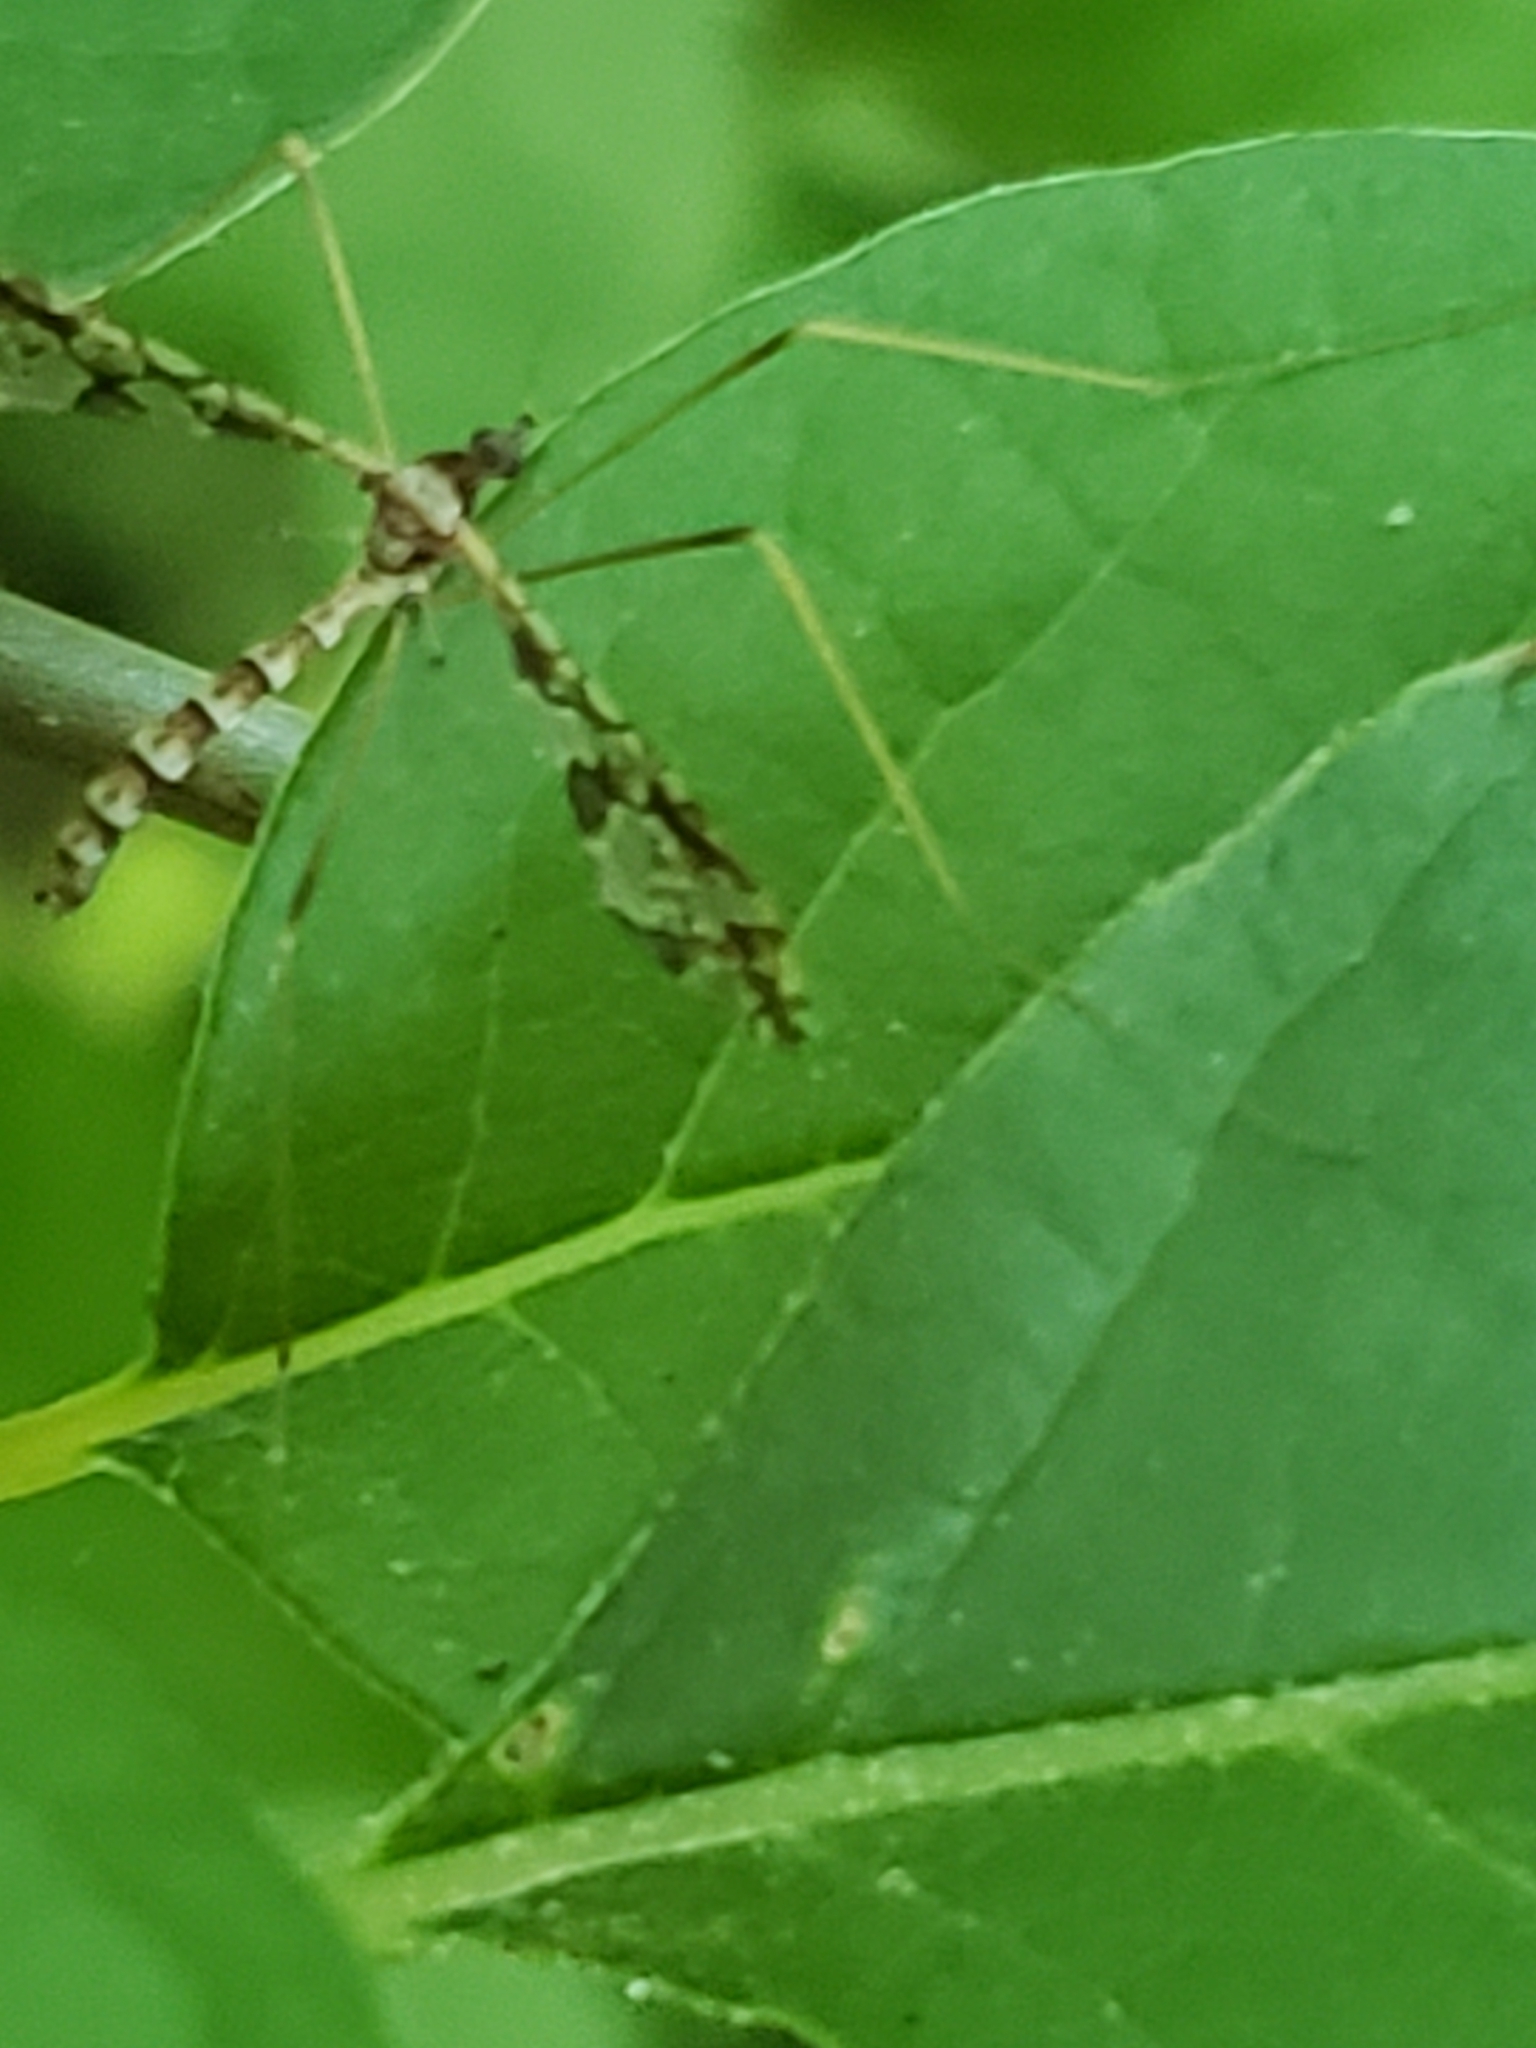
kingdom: Animalia
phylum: Arthropoda
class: Insecta
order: Diptera
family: Limoniidae
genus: Epiphragma
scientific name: Epiphragma solatrix
